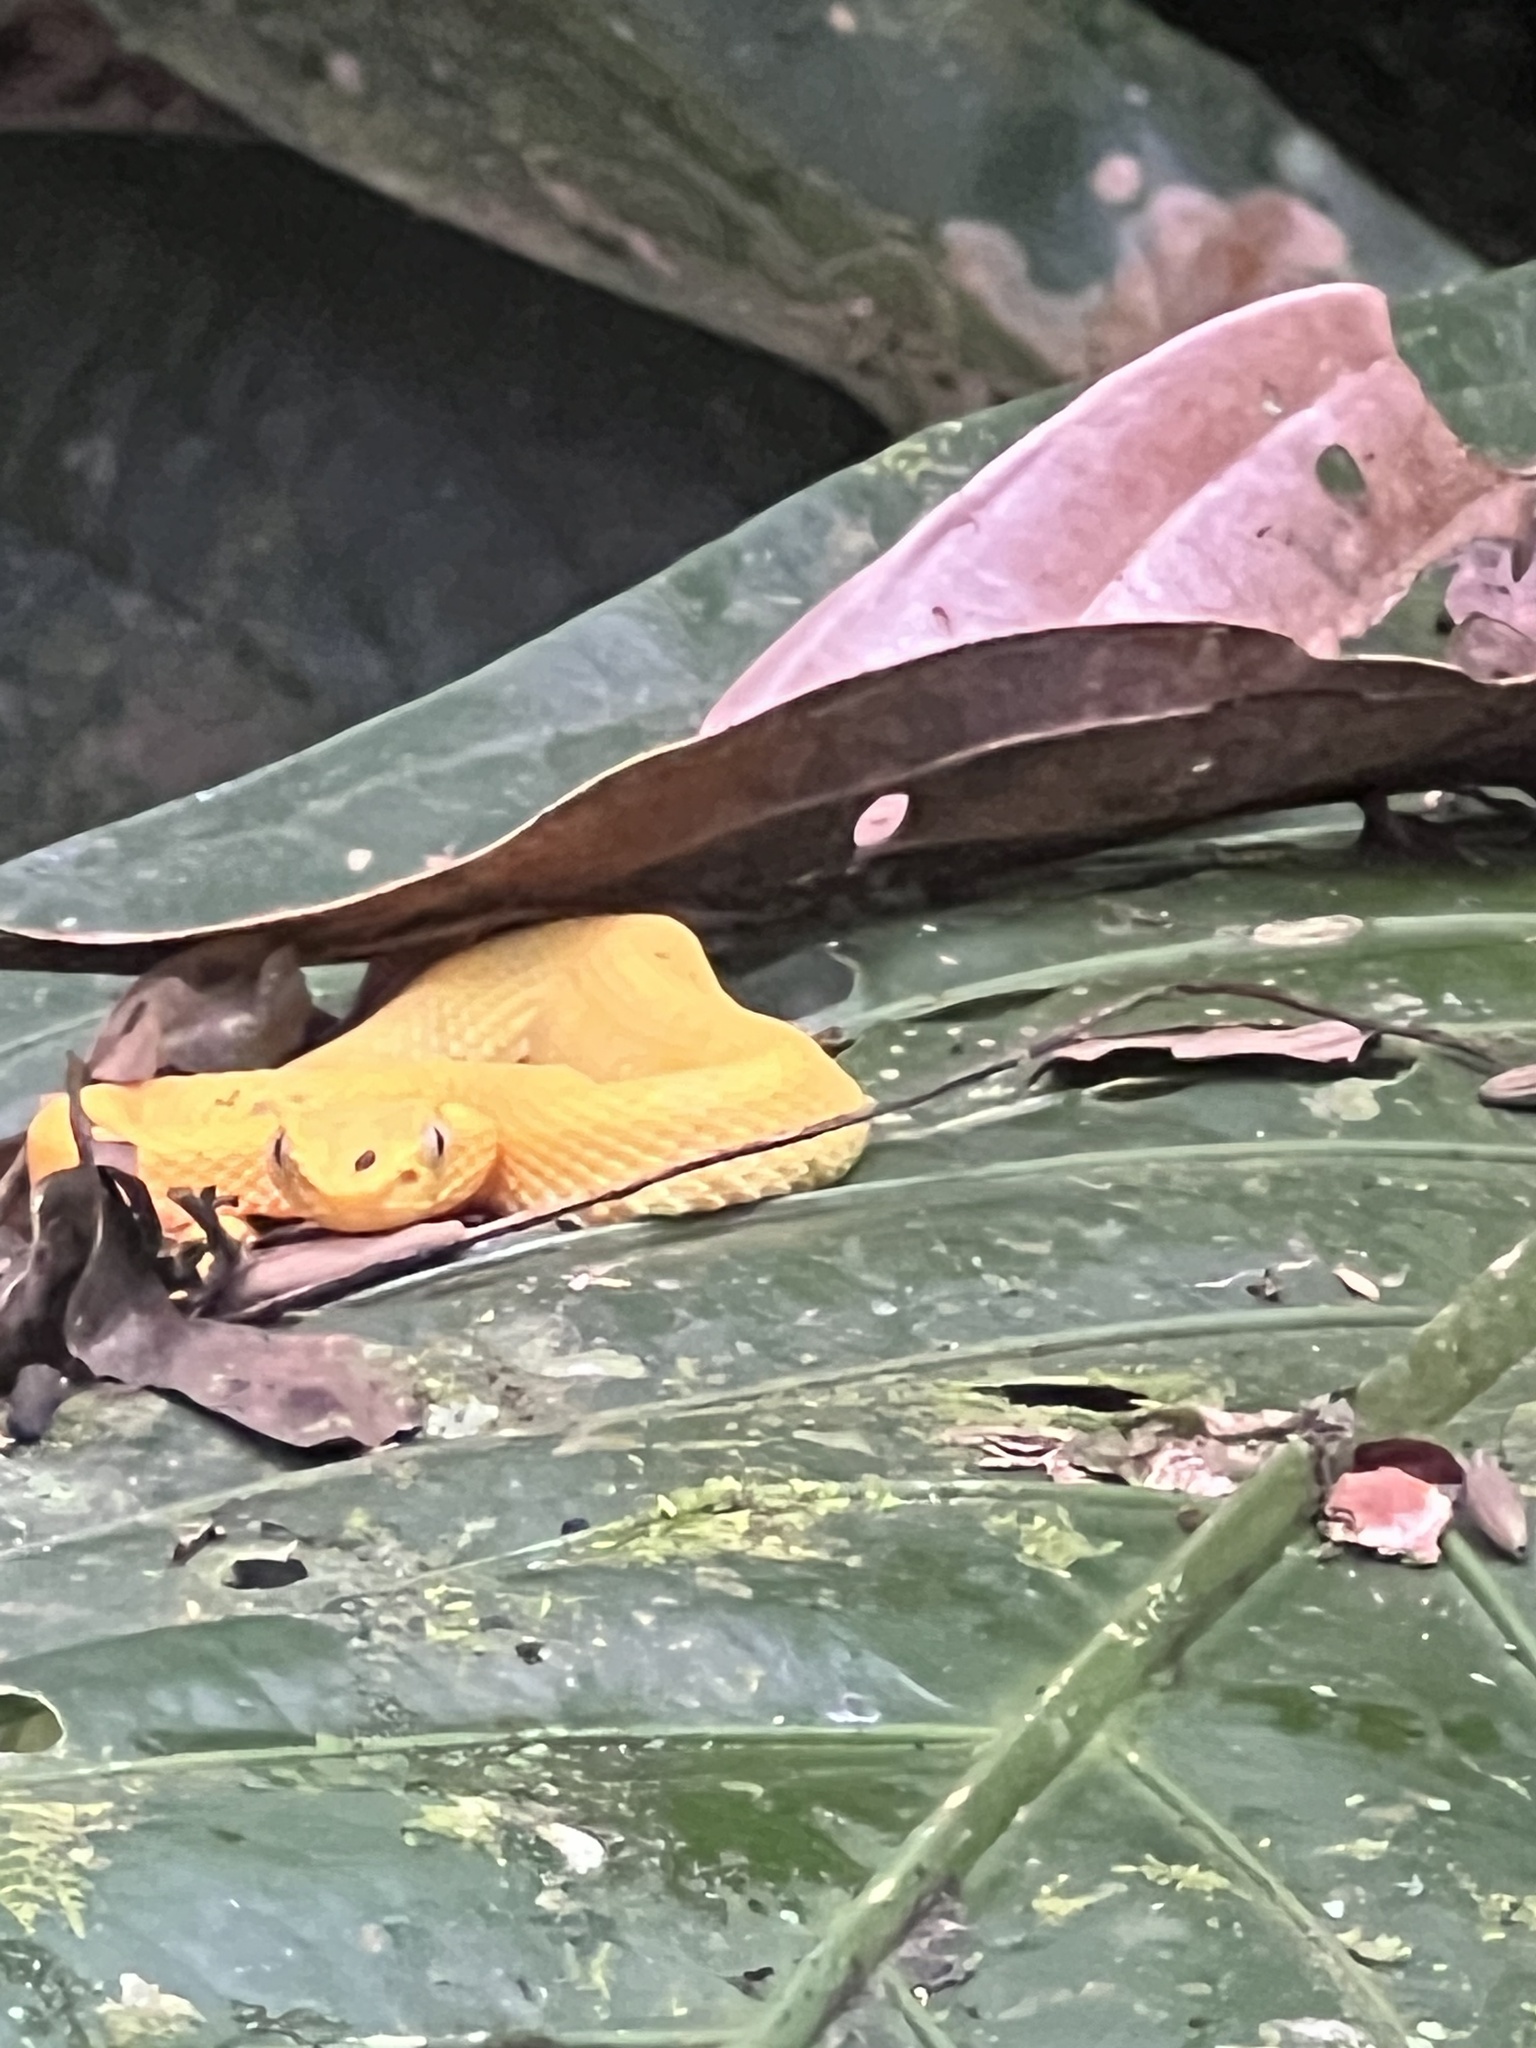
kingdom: Animalia
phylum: Chordata
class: Squamata
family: Viperidae
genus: Bothriechis
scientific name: Bothriechis schlegelii
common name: Eyelash viper
